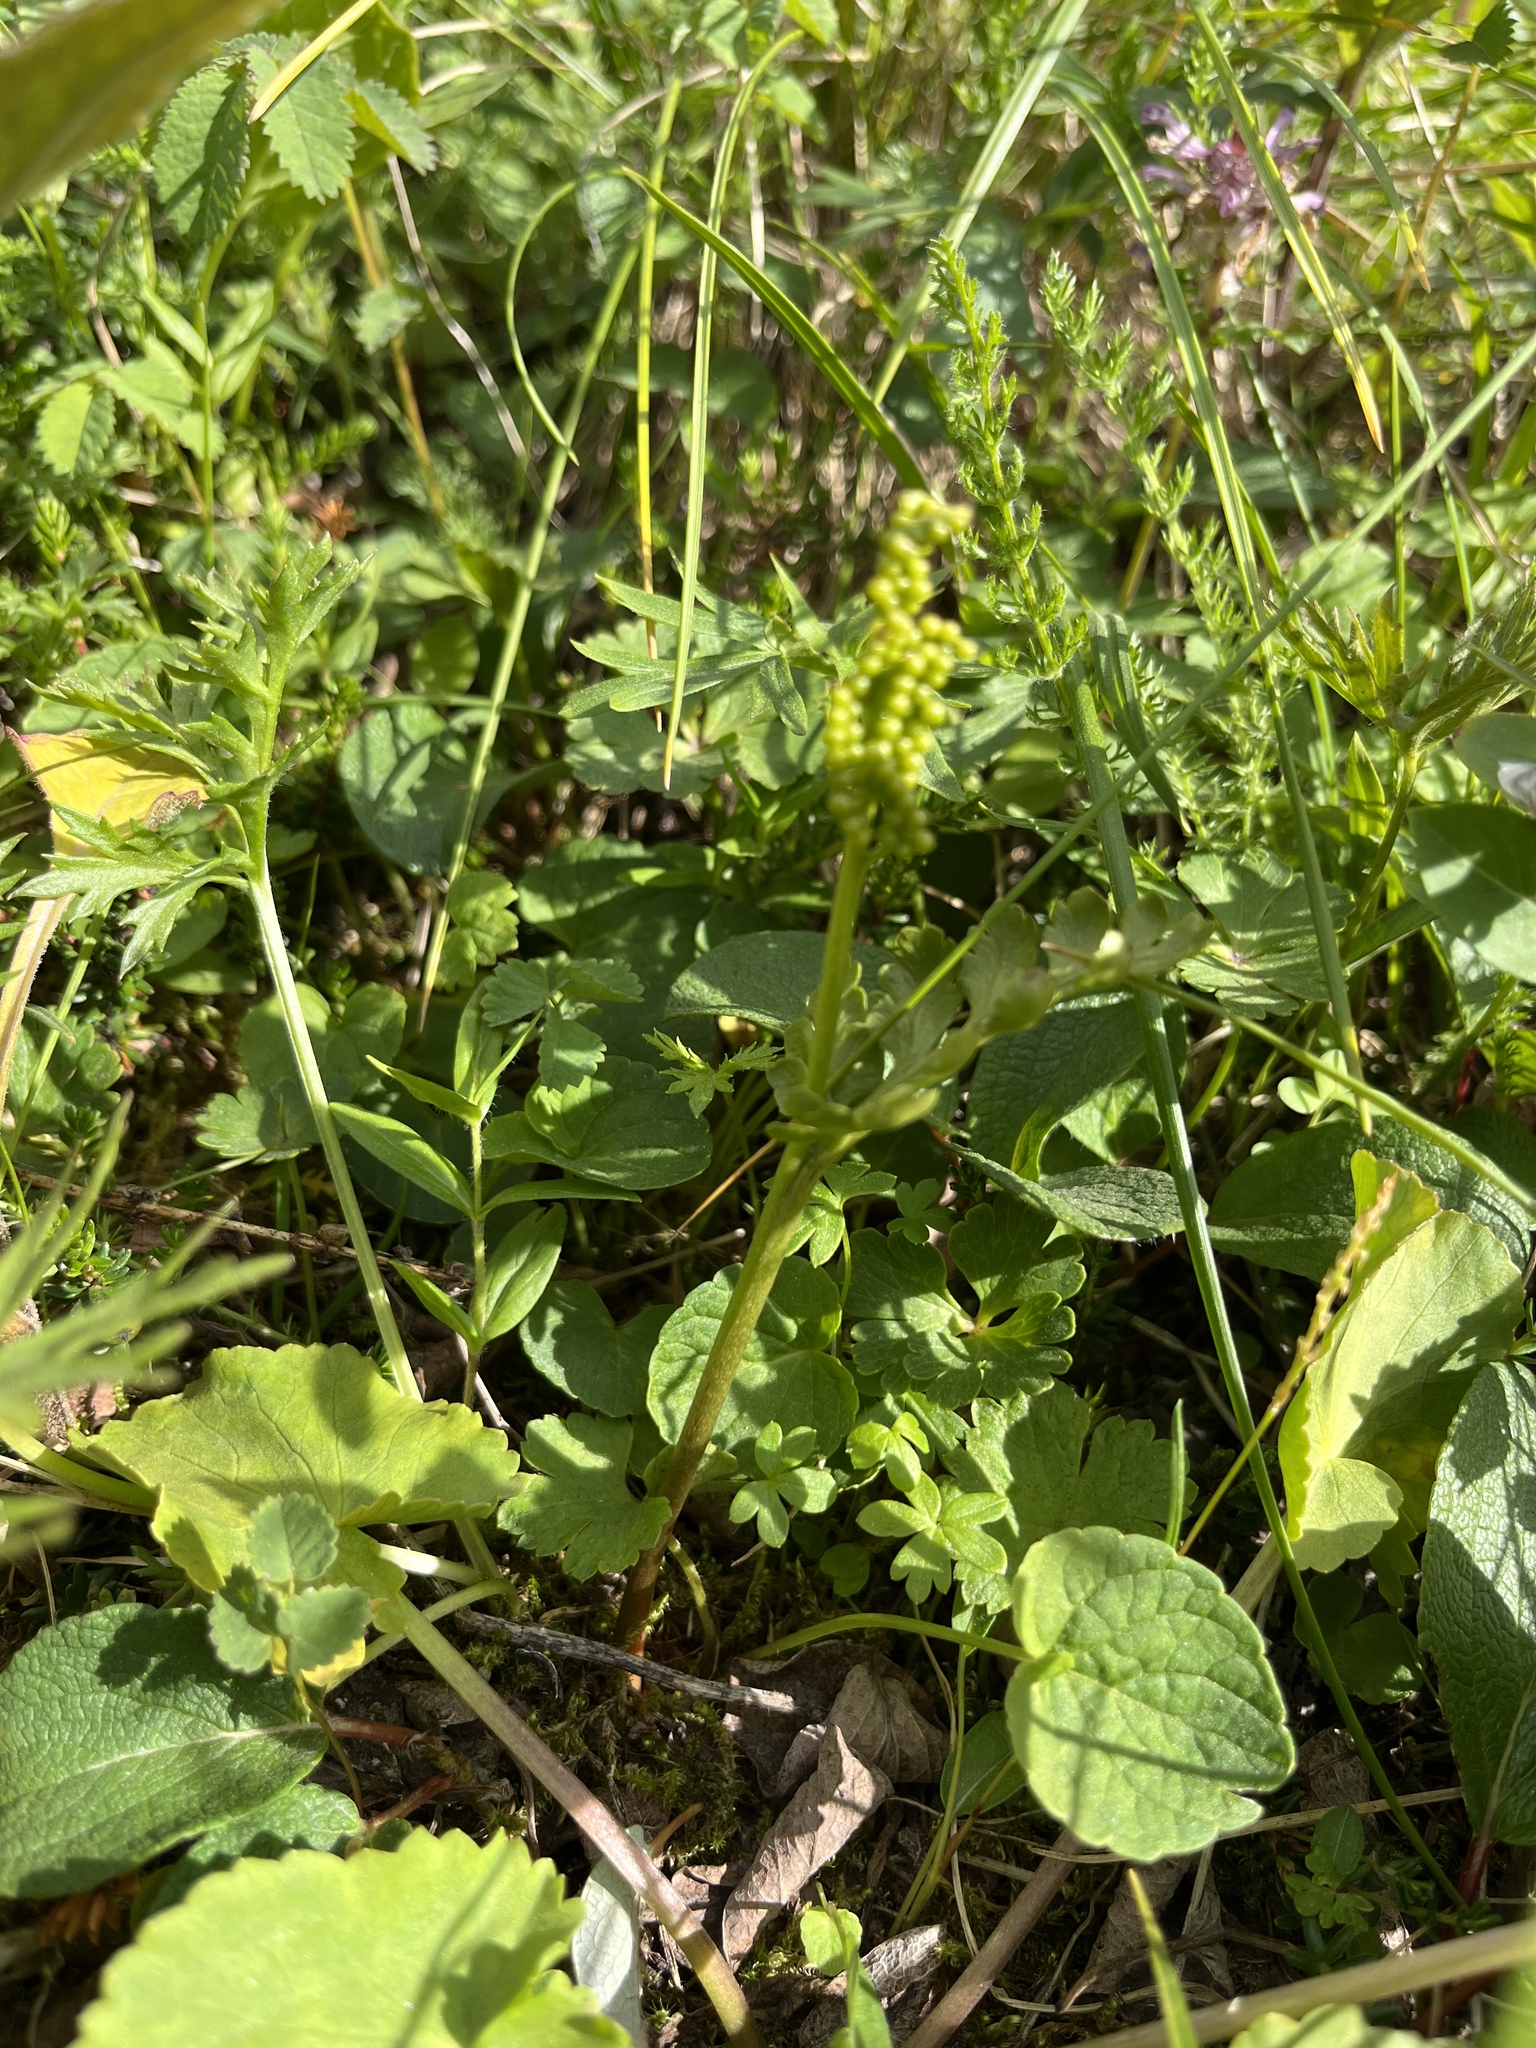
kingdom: Plantae
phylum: Tracheophyta
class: Polypodiopsida
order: Ophioglossales
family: Ophioglossaceae
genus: Botrychium
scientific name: Botrychium pinnatum
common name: Northwestern moonwort
